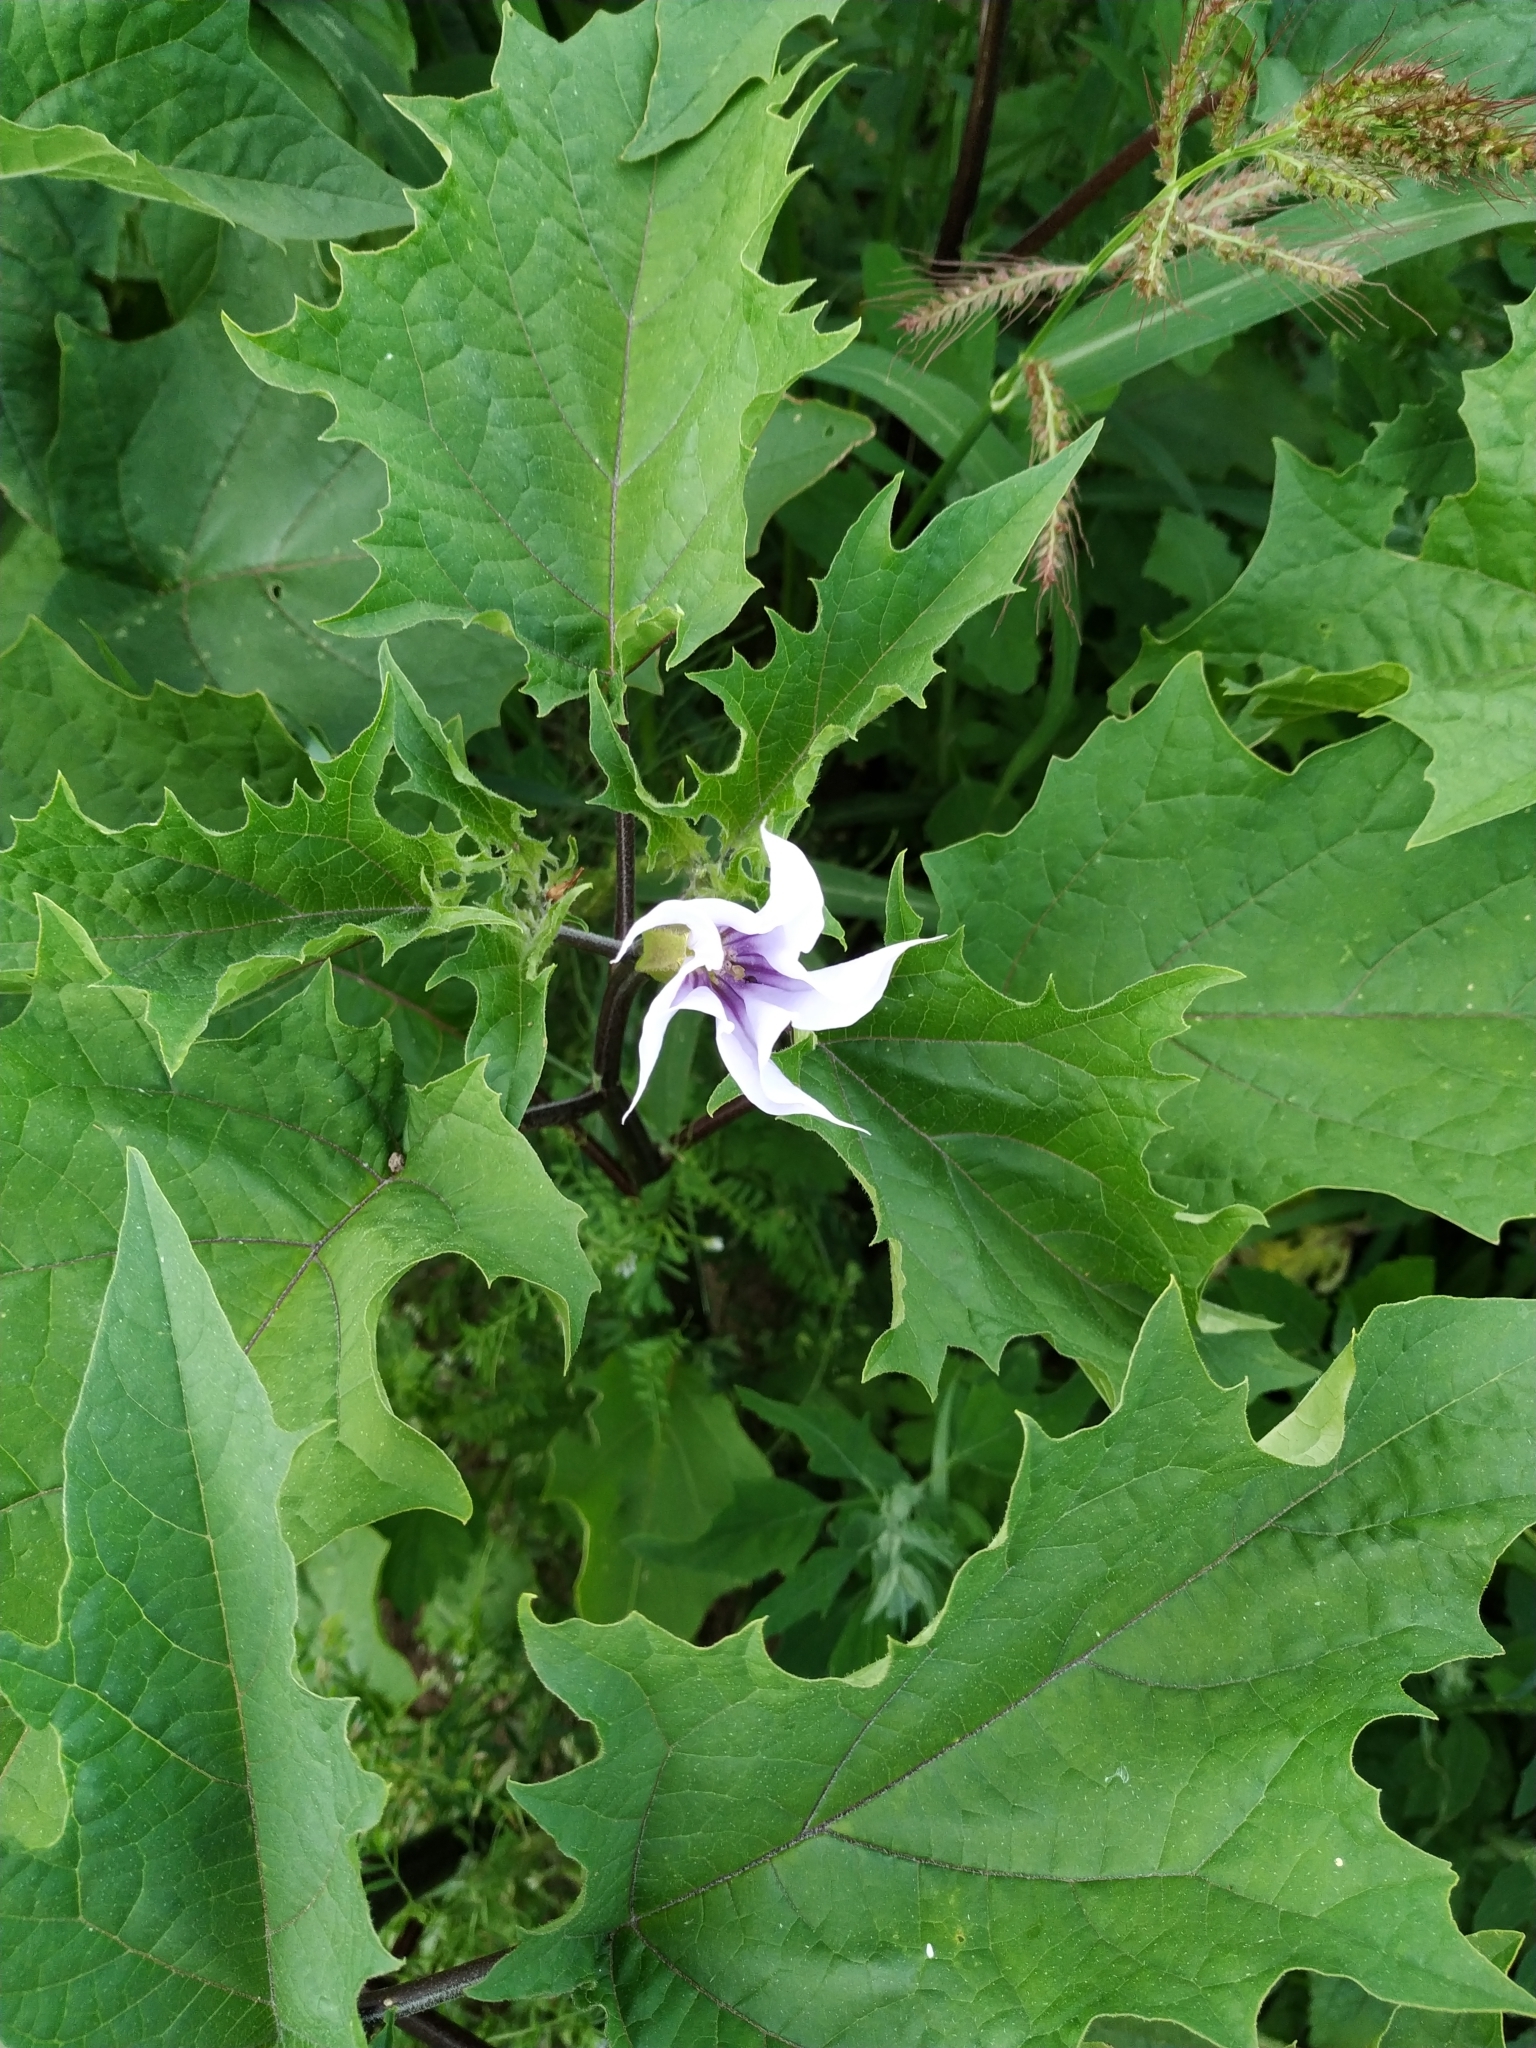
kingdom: Plantae
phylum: Tracheophyta
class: Magnoliopsida
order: Solanales
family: Solanaceae
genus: Datura
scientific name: Datura stramonium
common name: Thorn-apple
